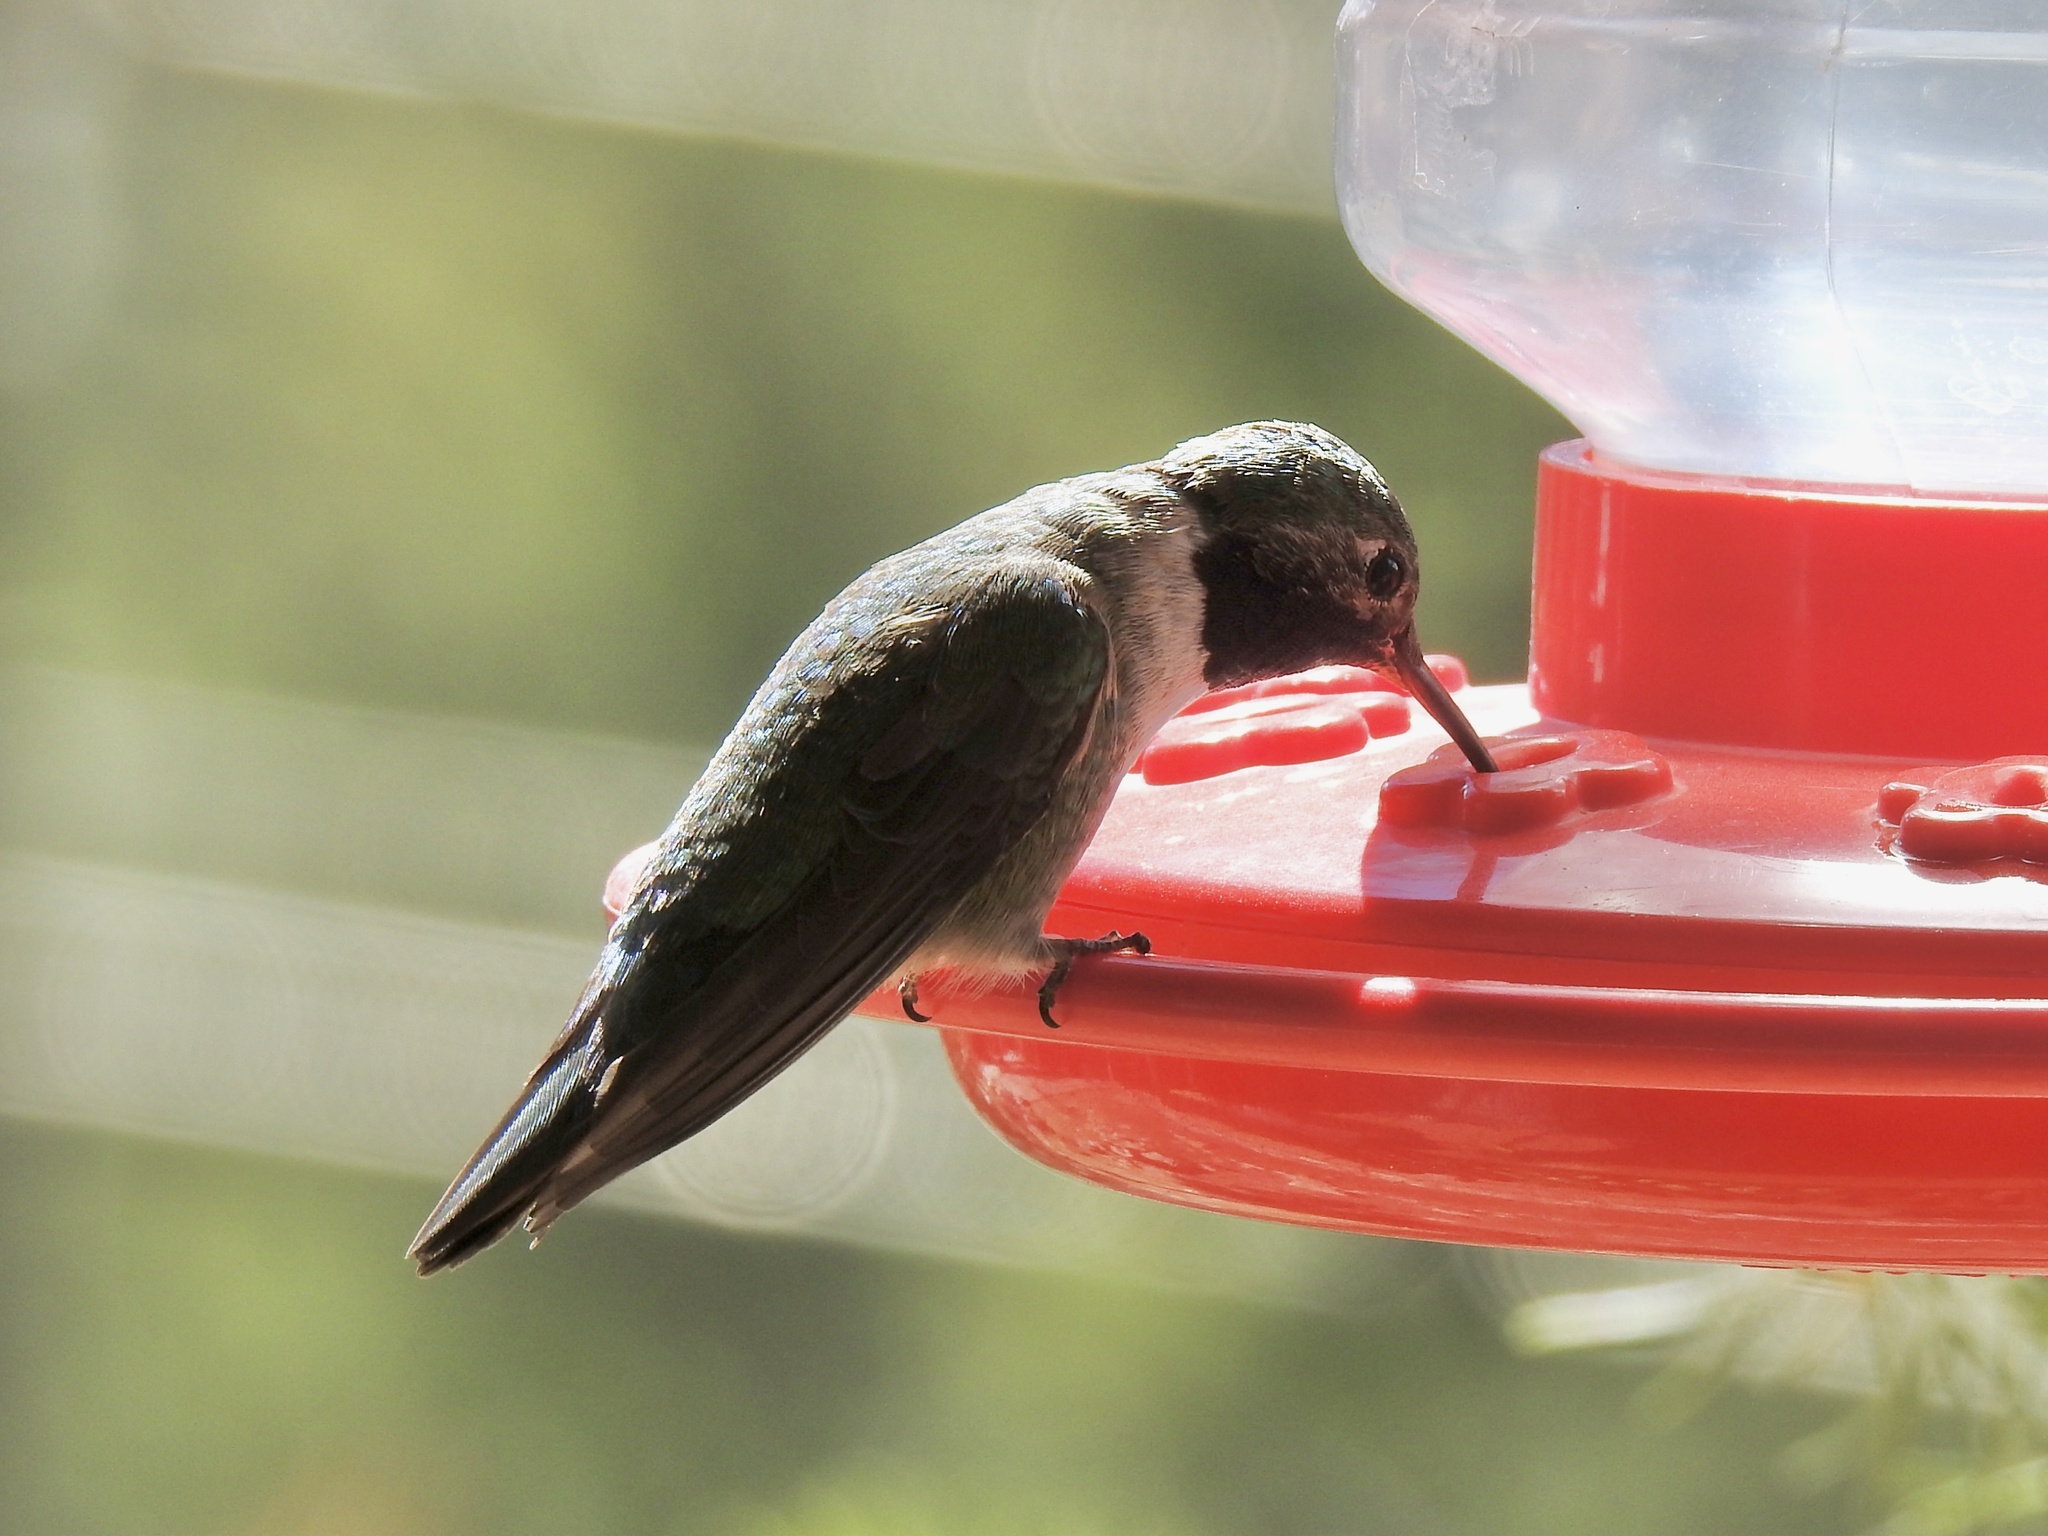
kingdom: Animalia
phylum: Chordata
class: Aves
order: Apodiformes
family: Trochilidae
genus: Selasphorus
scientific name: Selasphorus platycercus
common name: Broad-tailed hummingbird
